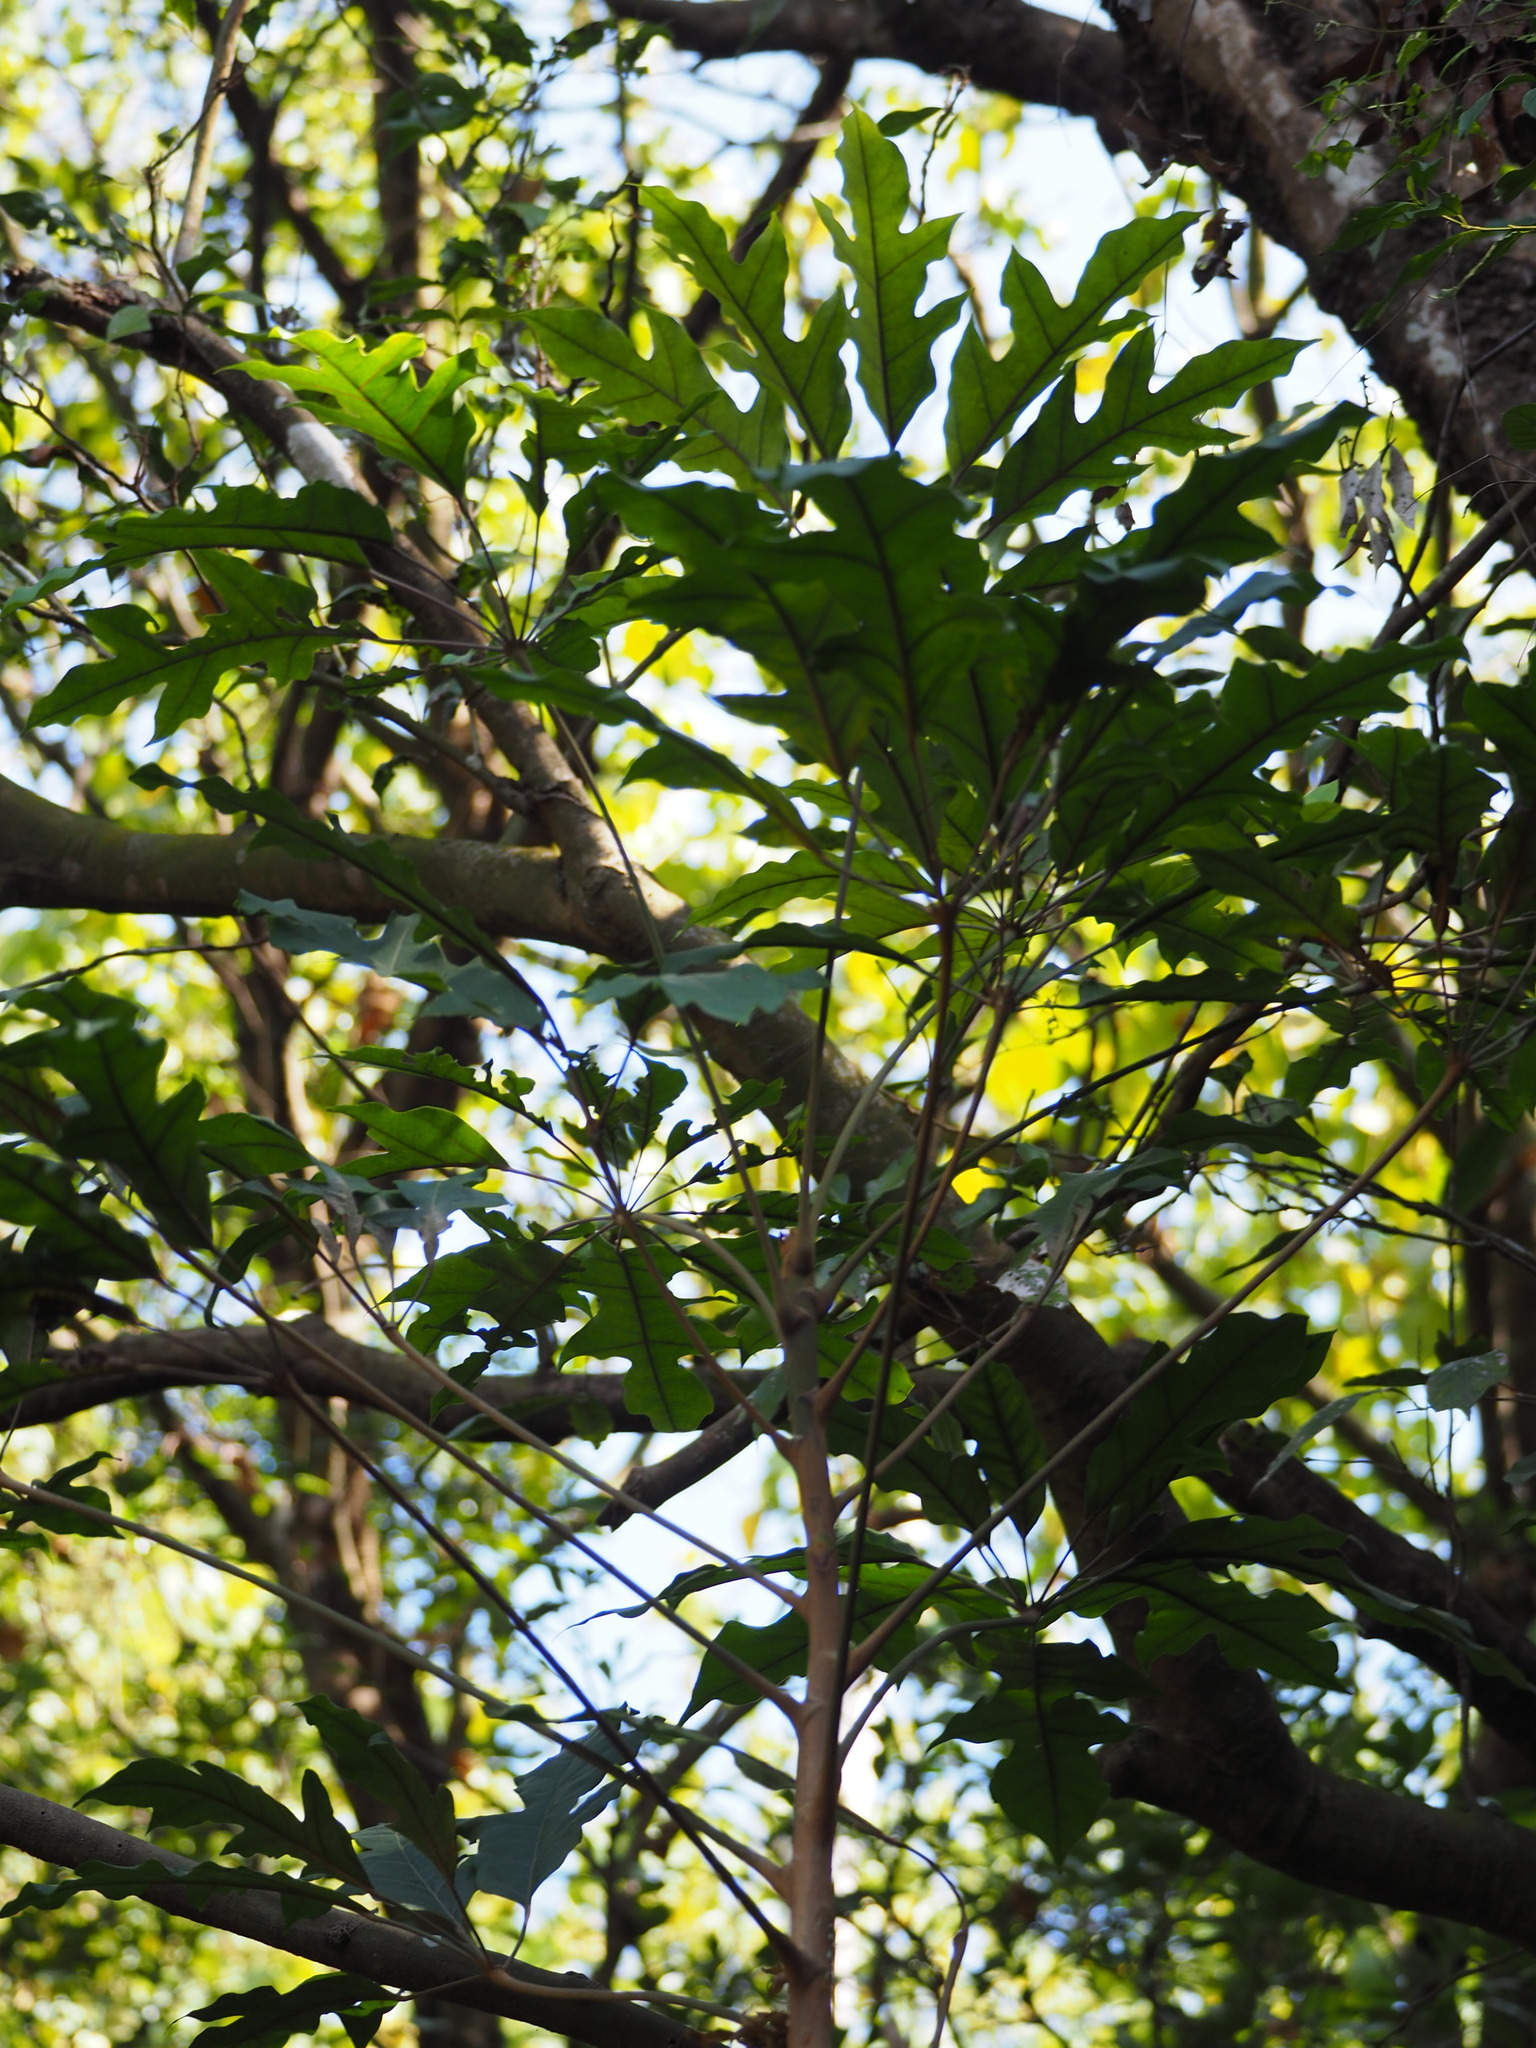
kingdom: Plantae
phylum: Tracheophyta
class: Magnoliopsida
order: Apiales
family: Araliaceae
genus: Heptapleurum
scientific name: Heptapleurum heptaphyllum
